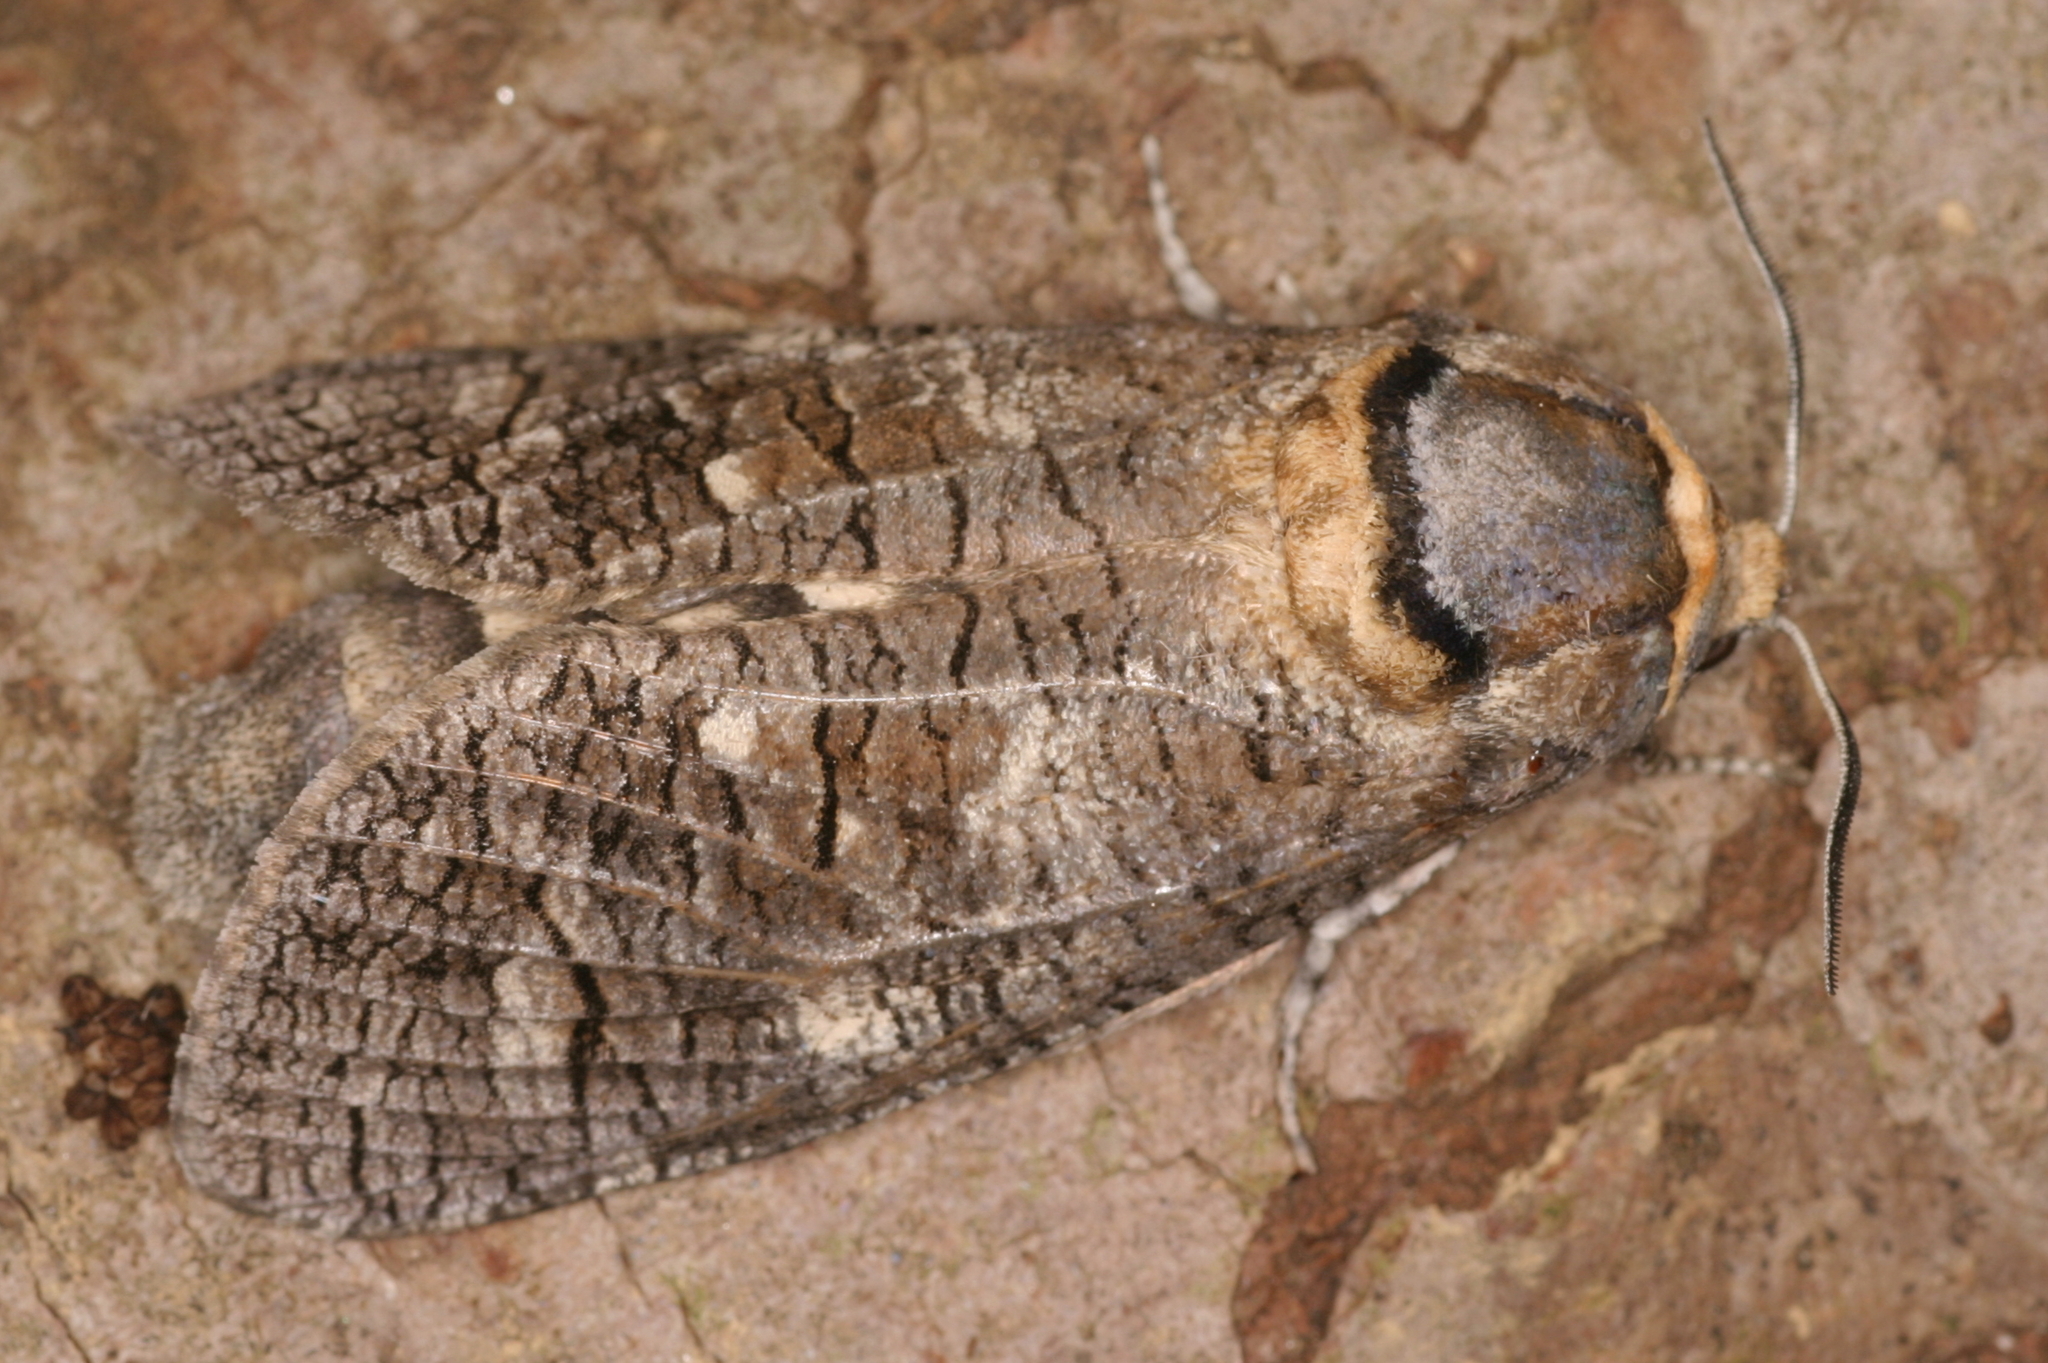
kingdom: Animalia
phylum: Arthropoda
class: Insecta
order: Lepidoptera
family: Cossidae
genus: Cossus
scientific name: Cossus cossus
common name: Goat moth
